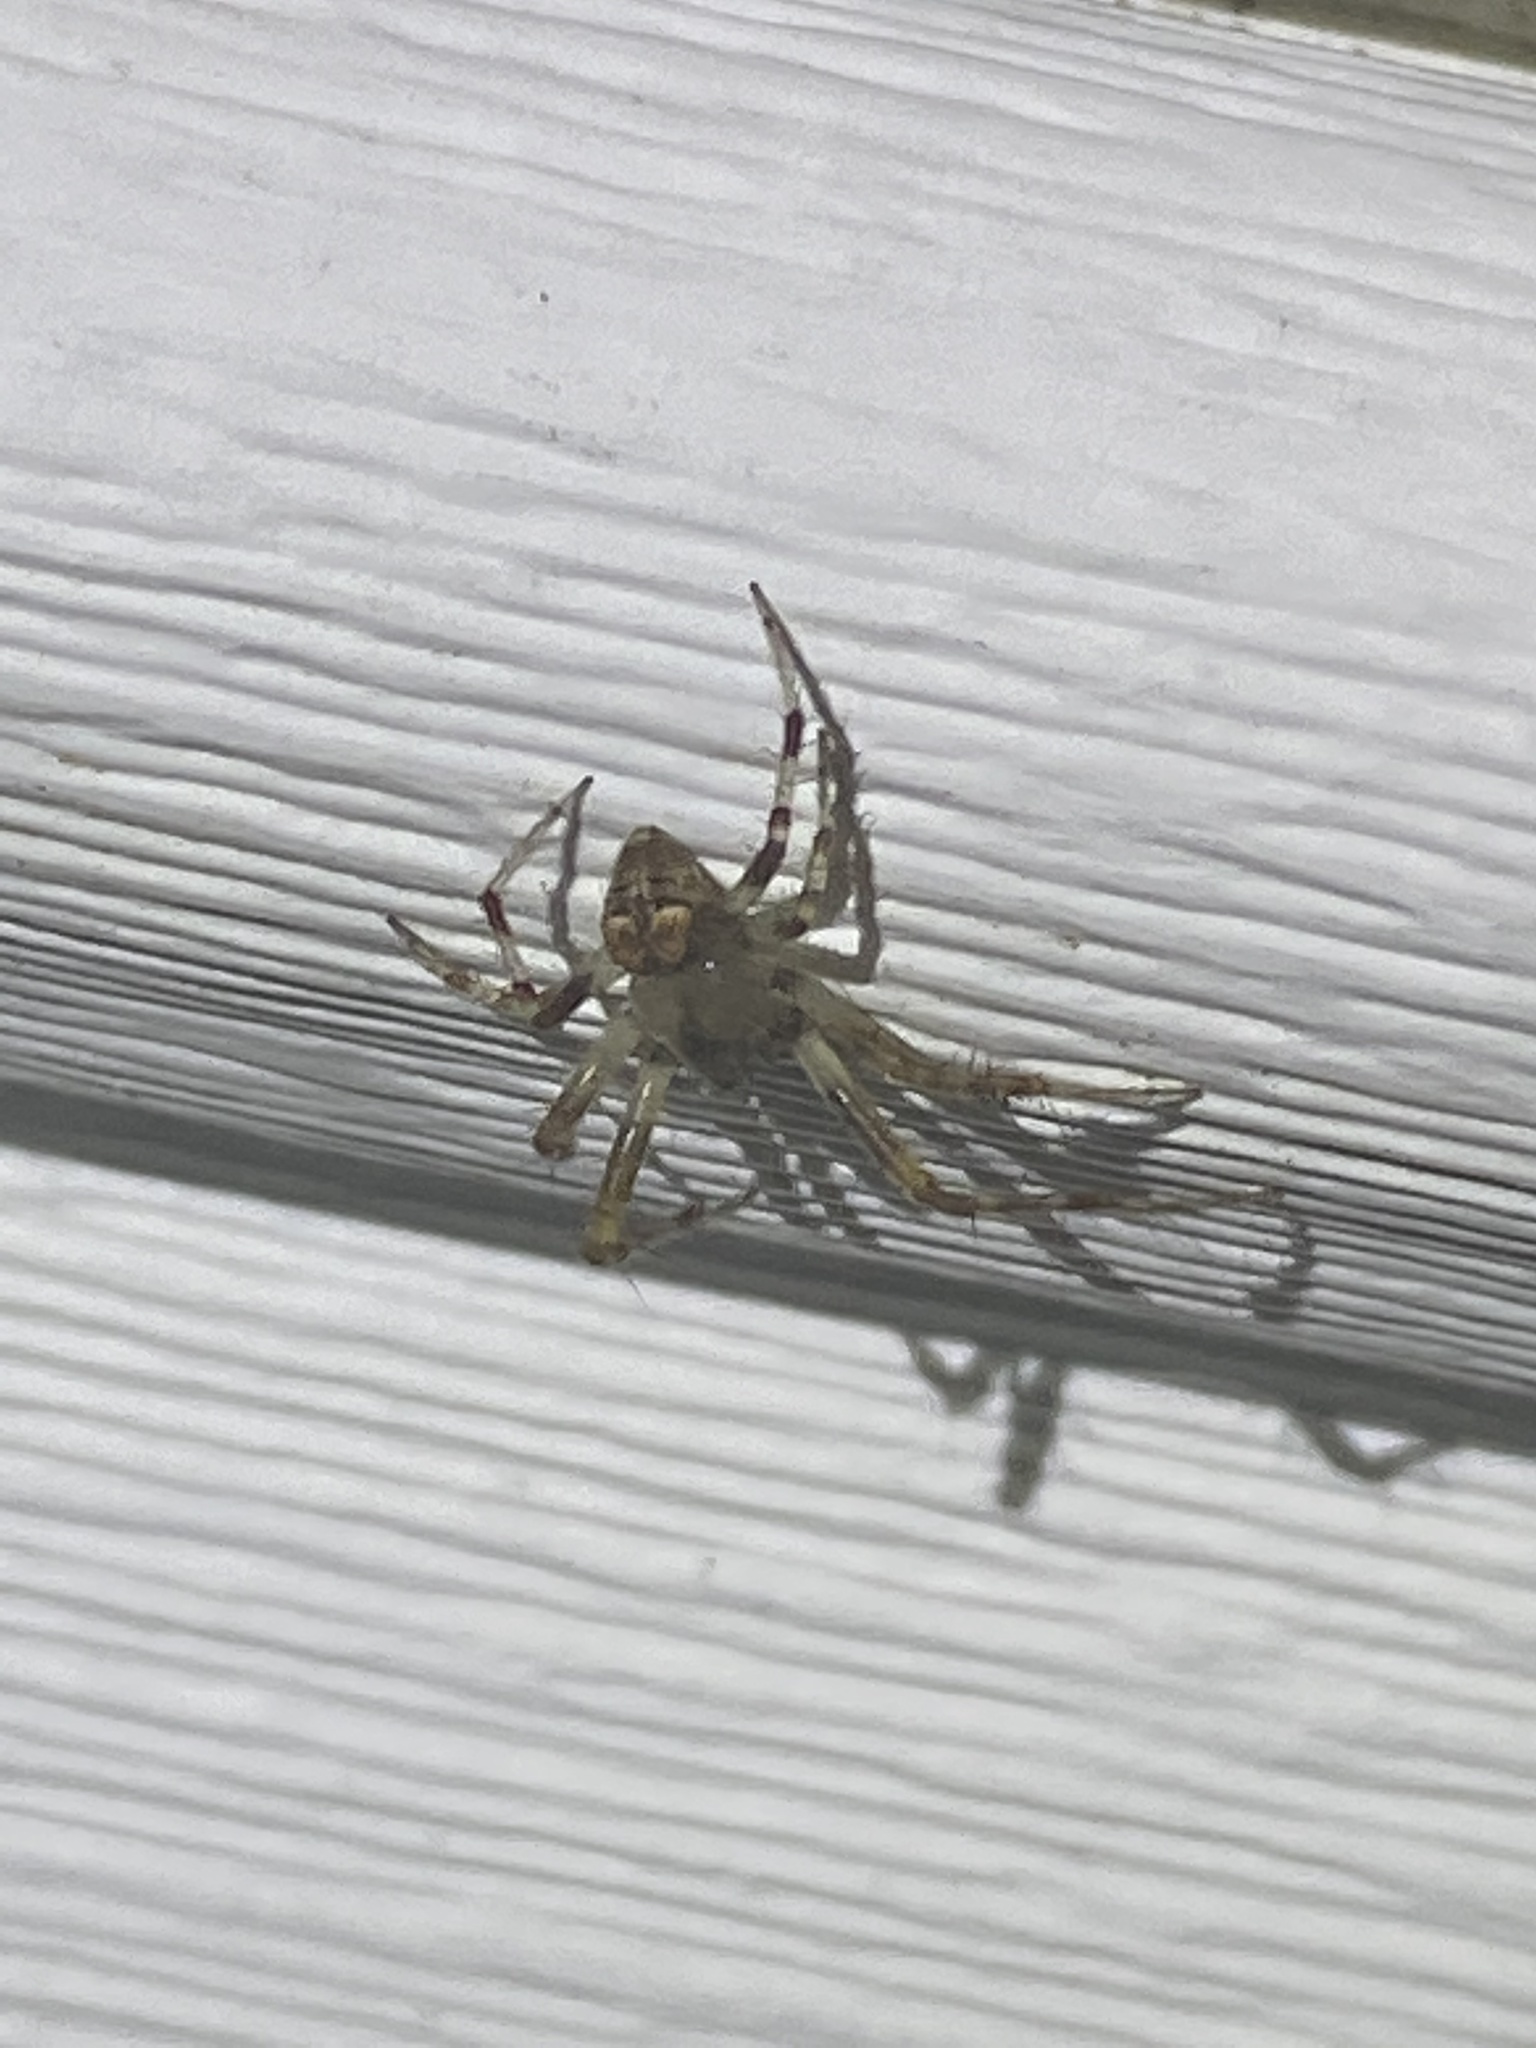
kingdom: Animalia
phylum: Arthropoda
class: Arachnida
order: Araneae
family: Araneidae
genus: Araneus
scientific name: Araneus pegnia
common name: Orb weavers
